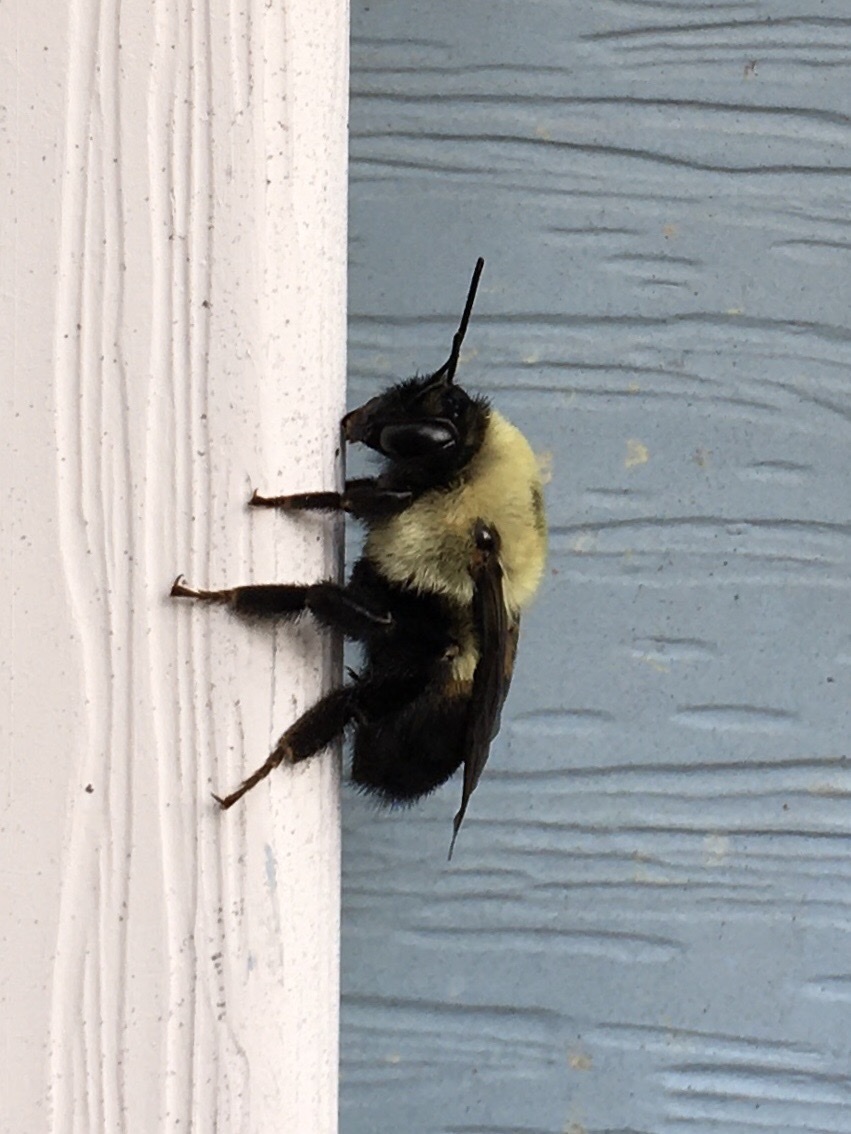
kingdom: Animalia
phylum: Arthropoda
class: Insecta
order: Hymenoptera
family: Apidae
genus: Bombus
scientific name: Bombus griseocollis
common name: Brown-belted bumble bee
